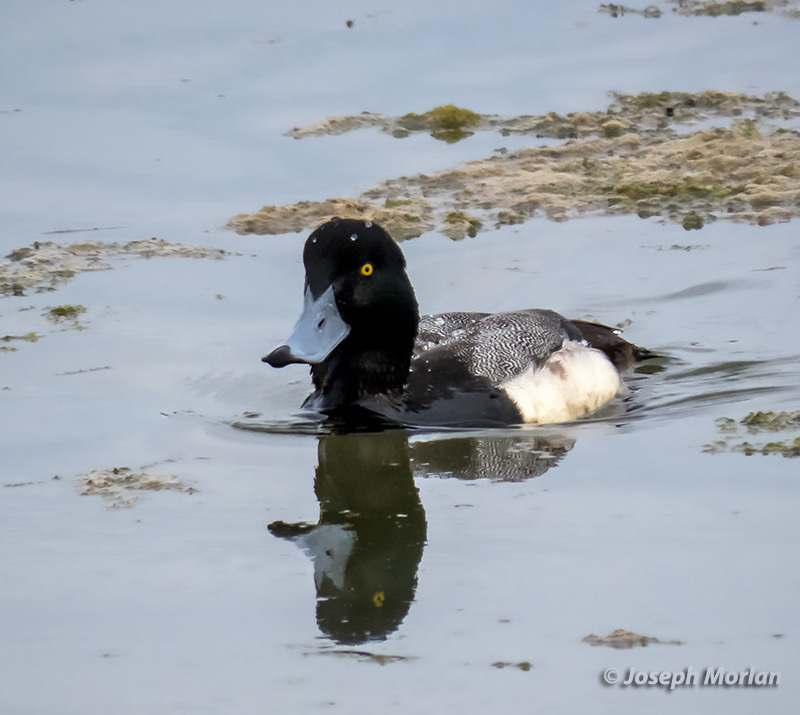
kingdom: Animalia
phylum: Chordata
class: Aves
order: Anseriformes
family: Anatidae
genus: Aythya
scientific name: Aythya marila
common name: Greater scaup
